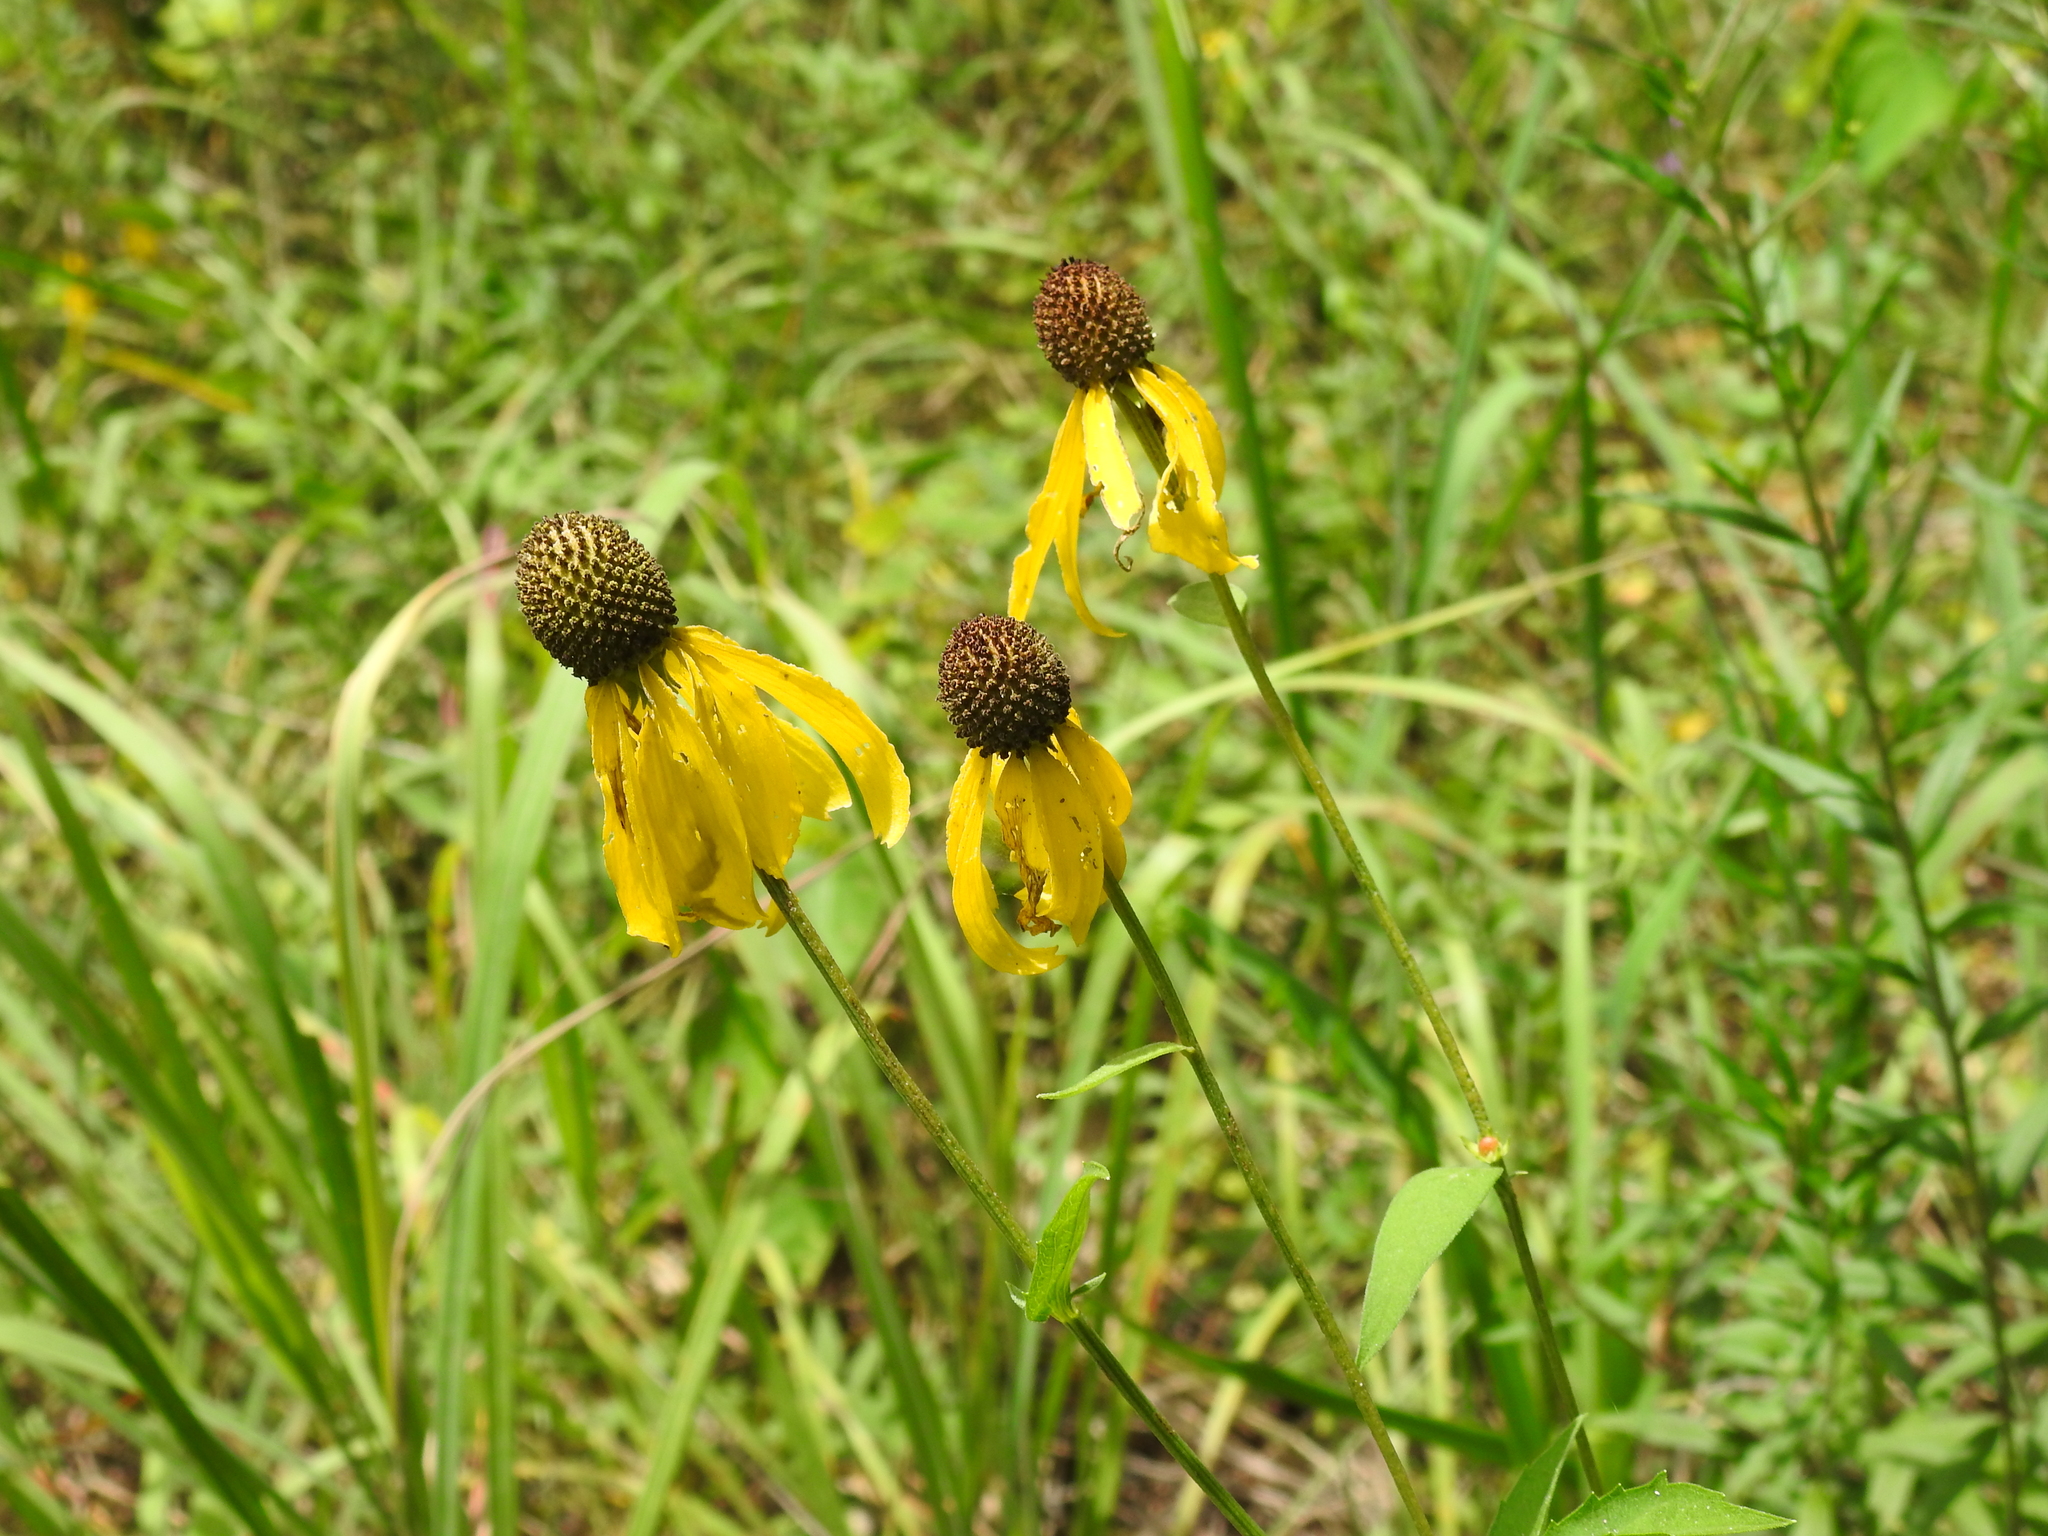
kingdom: Plantae
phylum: Tracheophyta
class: Magnoliopsida
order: Asterales
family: Asteraceae
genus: Ratibida
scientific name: Ratibida pinnata
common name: Drooping prairie-coneflower
